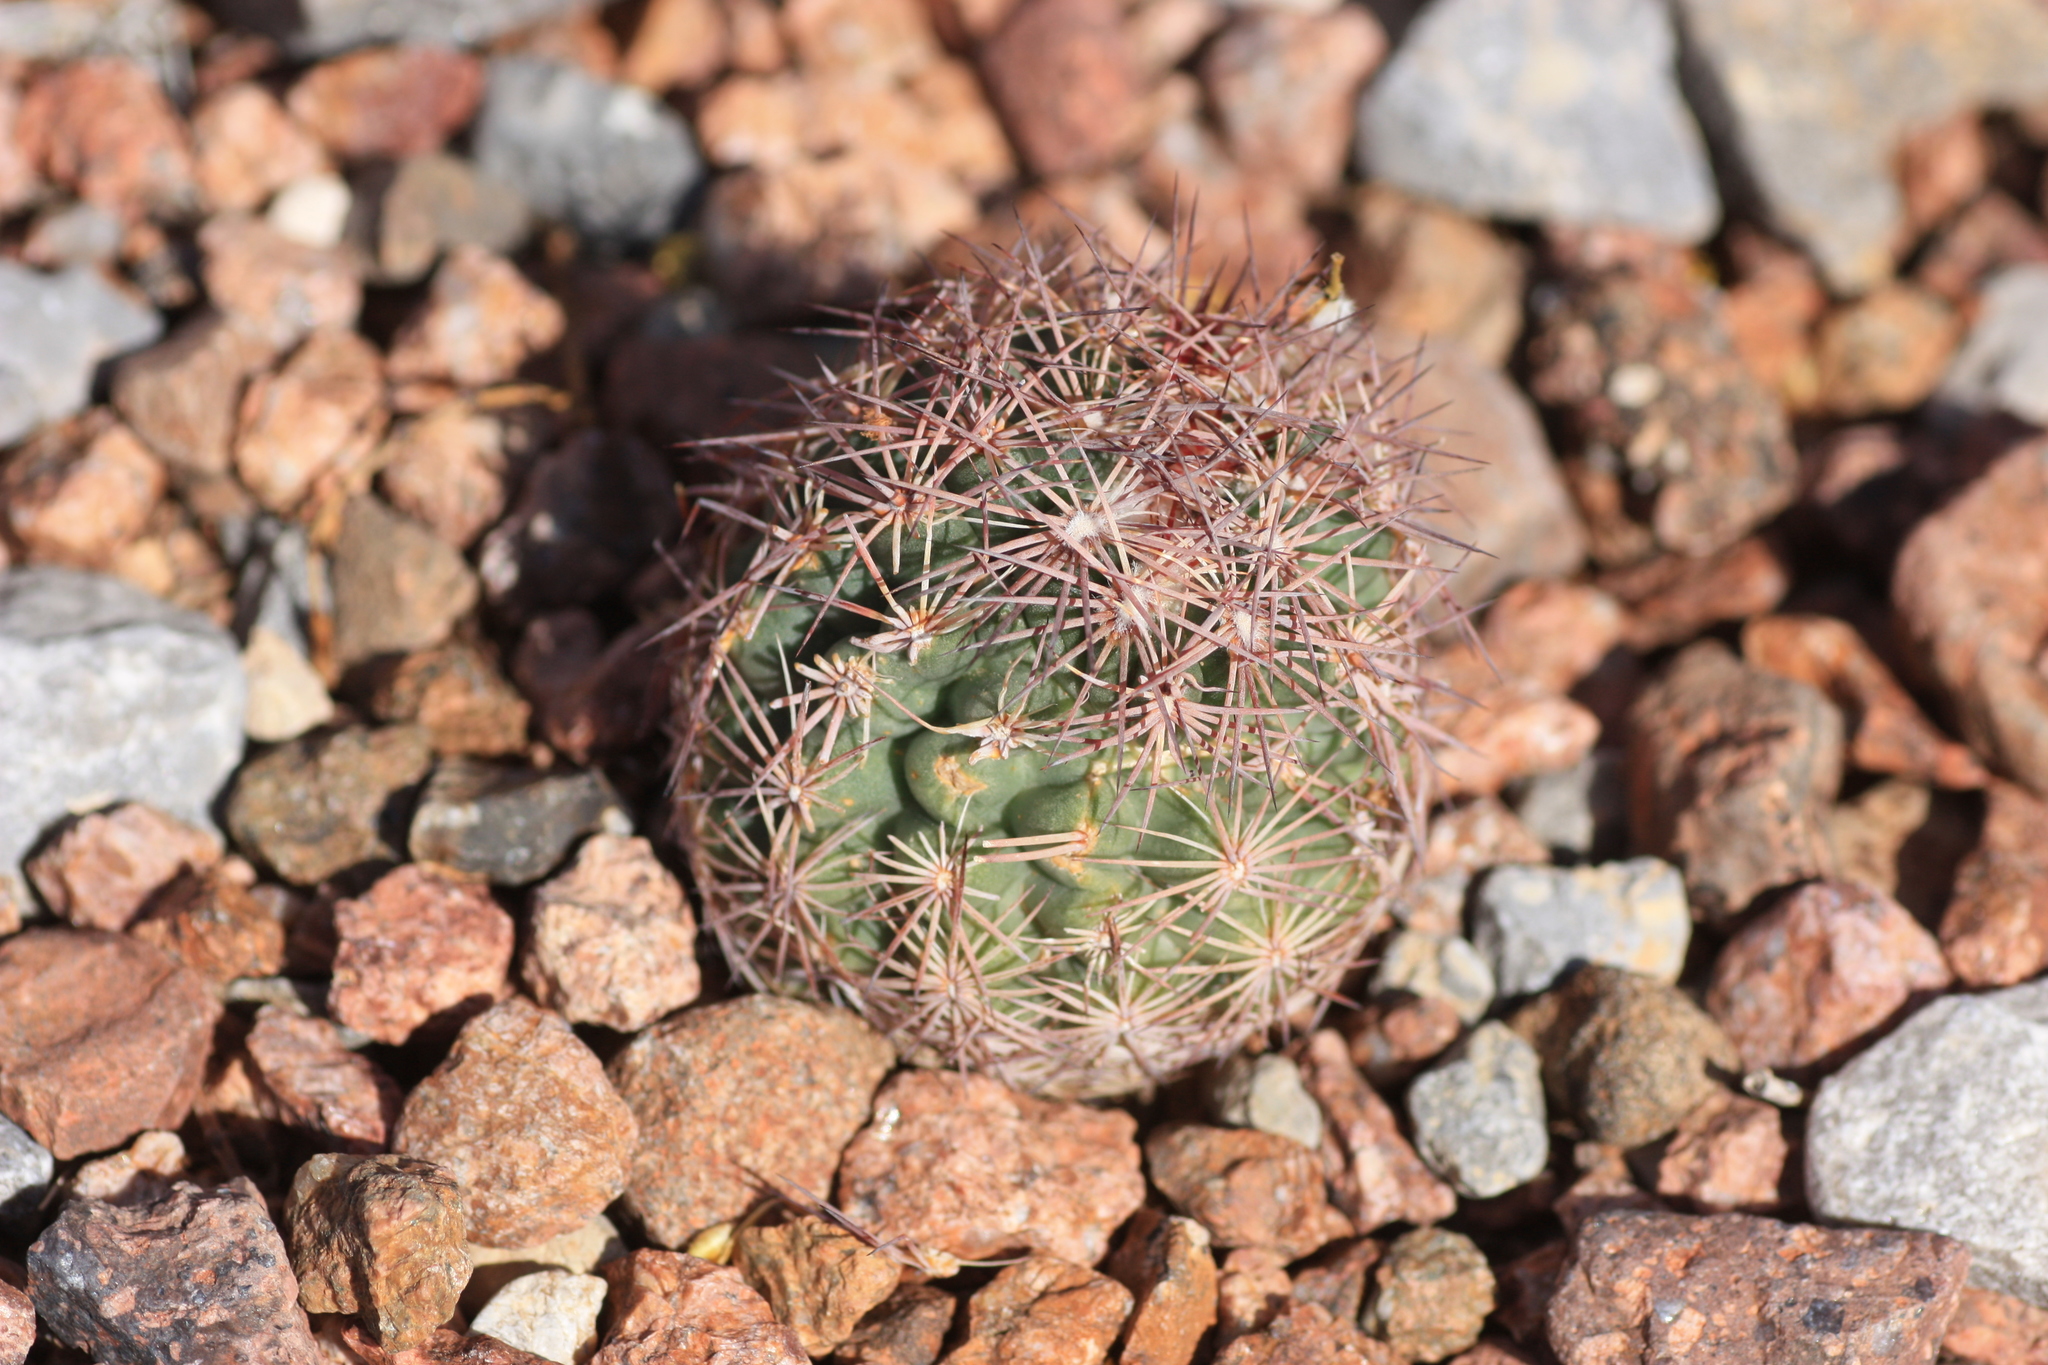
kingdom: Plantae
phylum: Tracheophyta
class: Magnoliopsida
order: Caryophyllales
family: Cactaceae
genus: Sclerocactus
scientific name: Sclerocactus intertextus
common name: White fish-hook cactus
